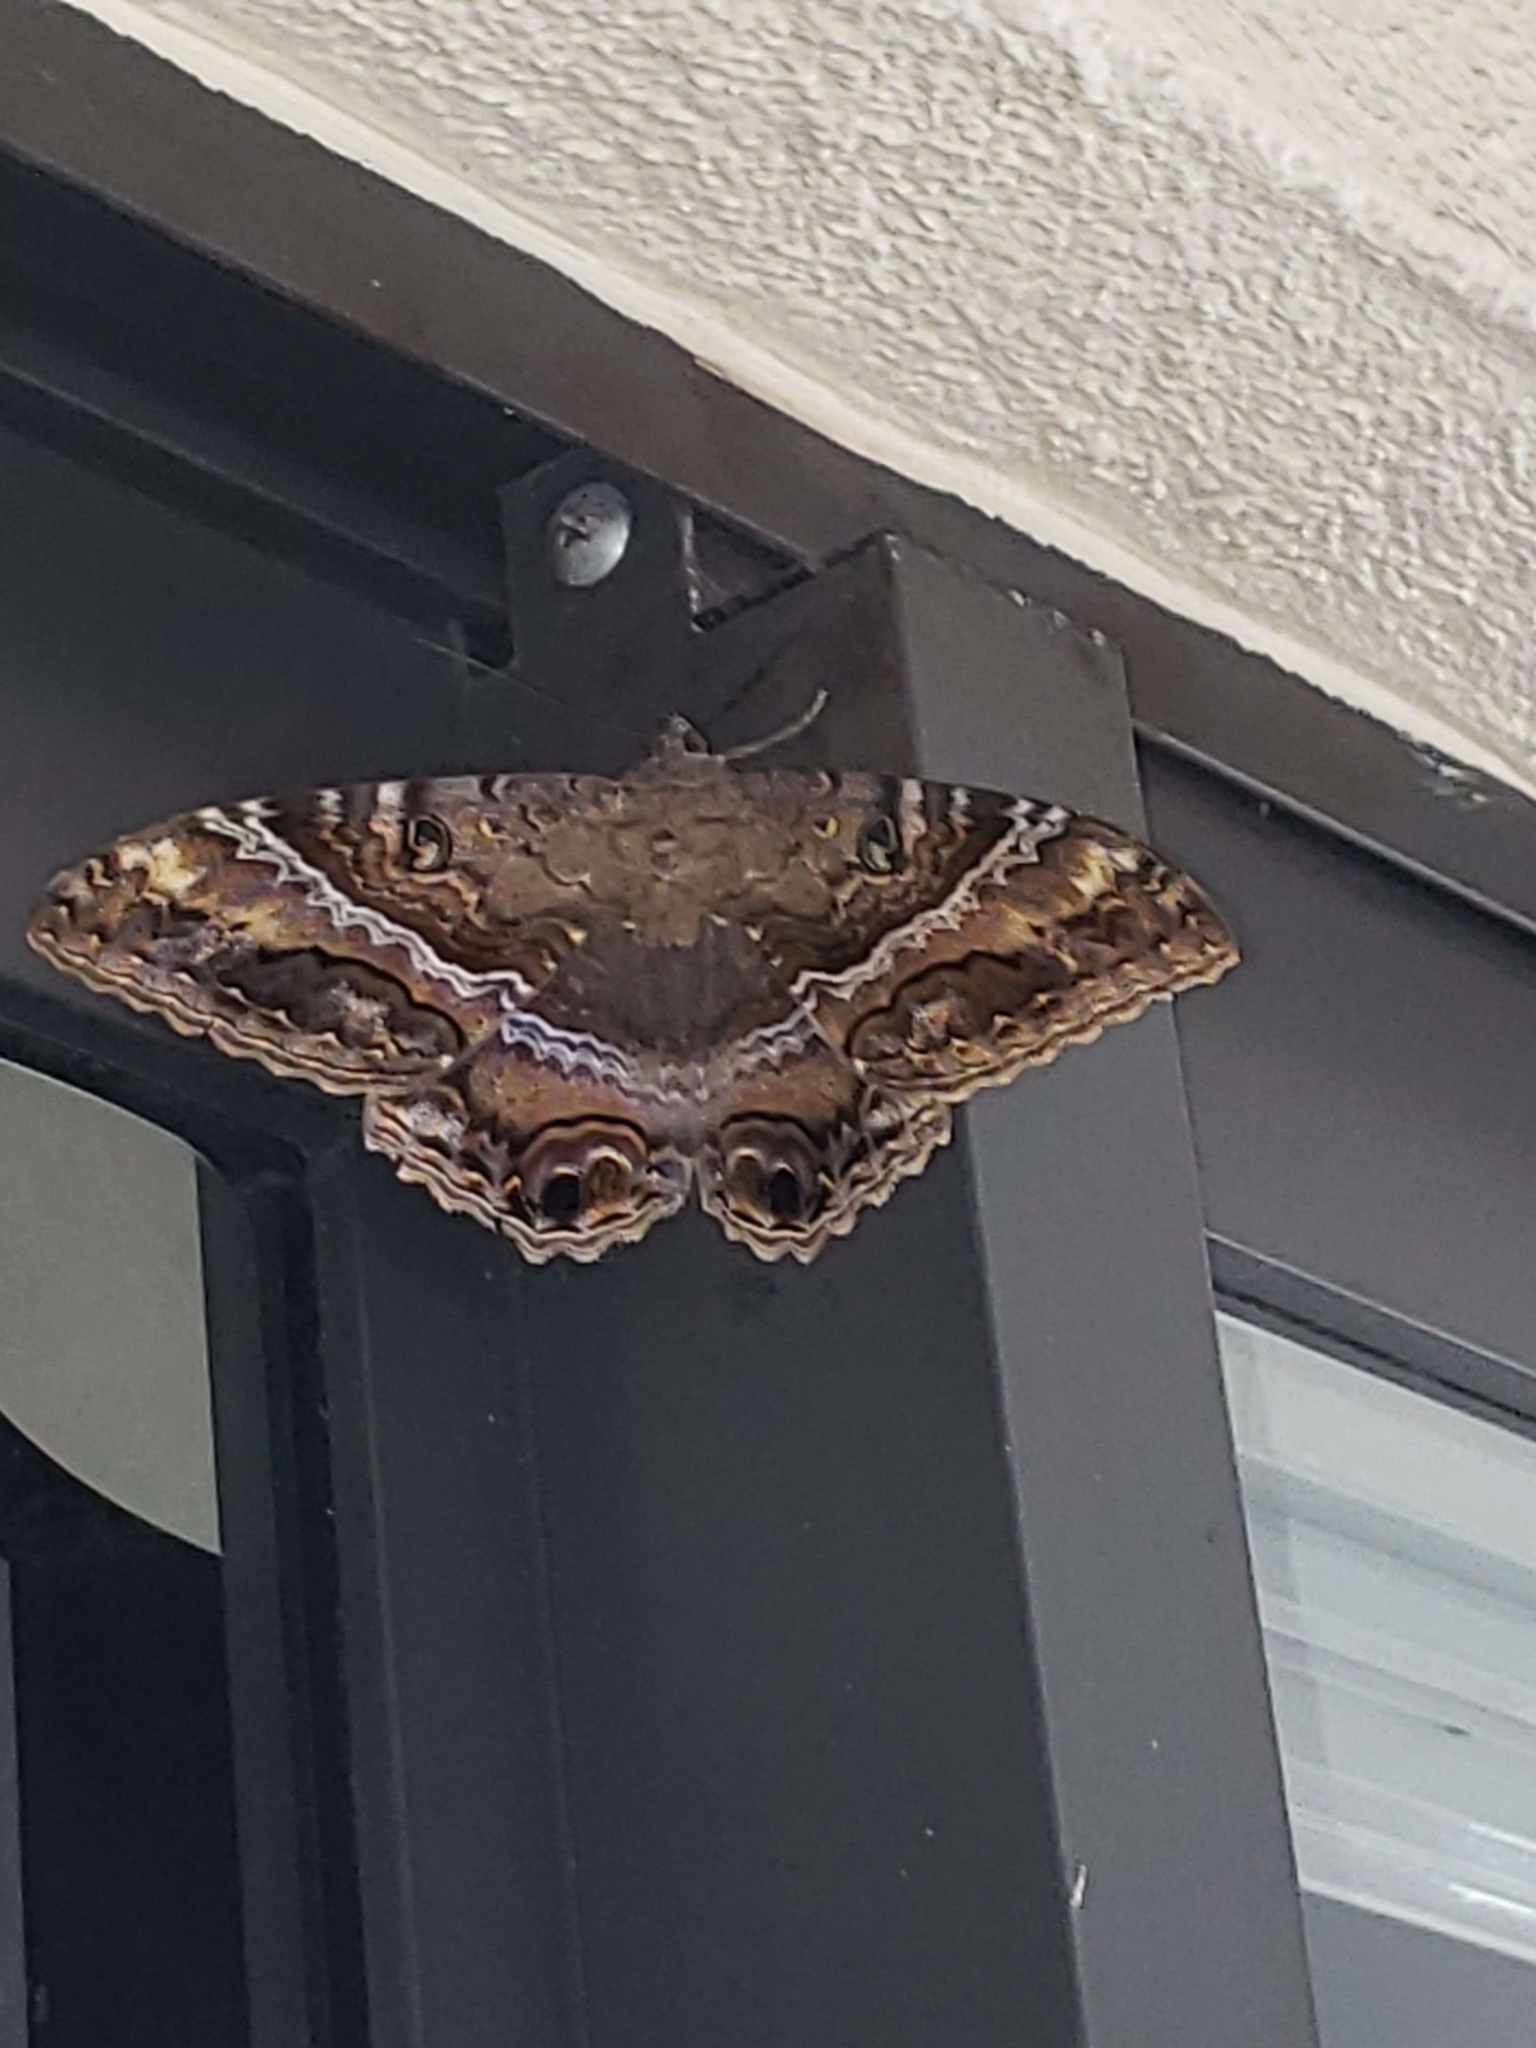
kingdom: Animalia
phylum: Arthropoda
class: Insecta
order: Lepidoptera
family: Erebidae
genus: Ascalapha
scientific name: Ascalapha odorata
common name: Black witch
